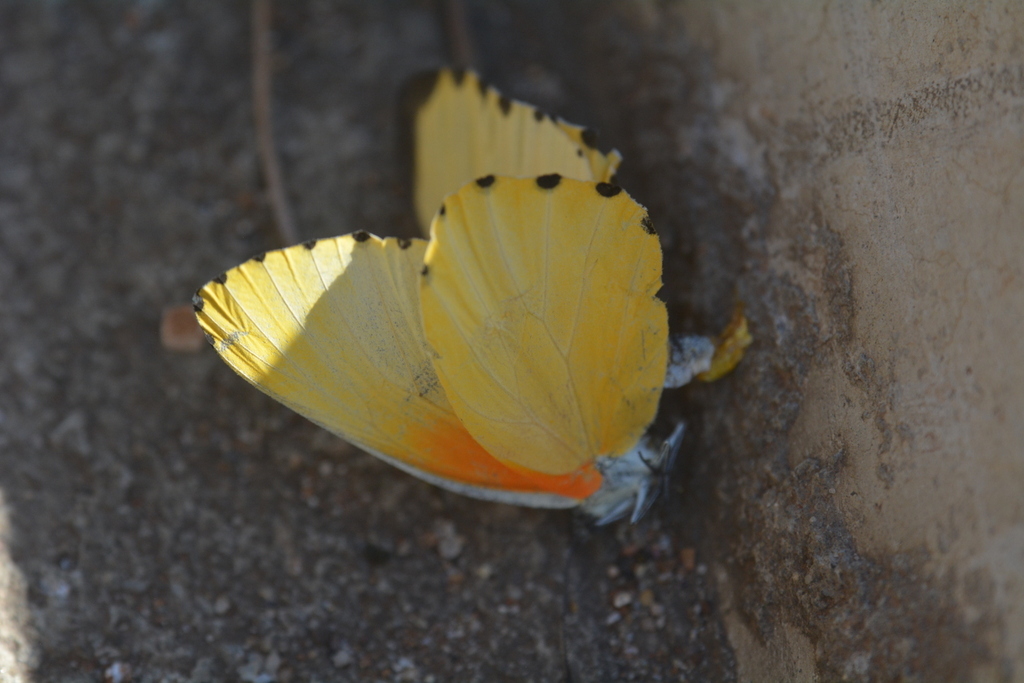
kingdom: Animalia
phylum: Arthropoda
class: Insecta
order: Lepidoptera
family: Pieridae
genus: Mylothris
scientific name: Mylothris agathina
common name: Eastern dotted border
